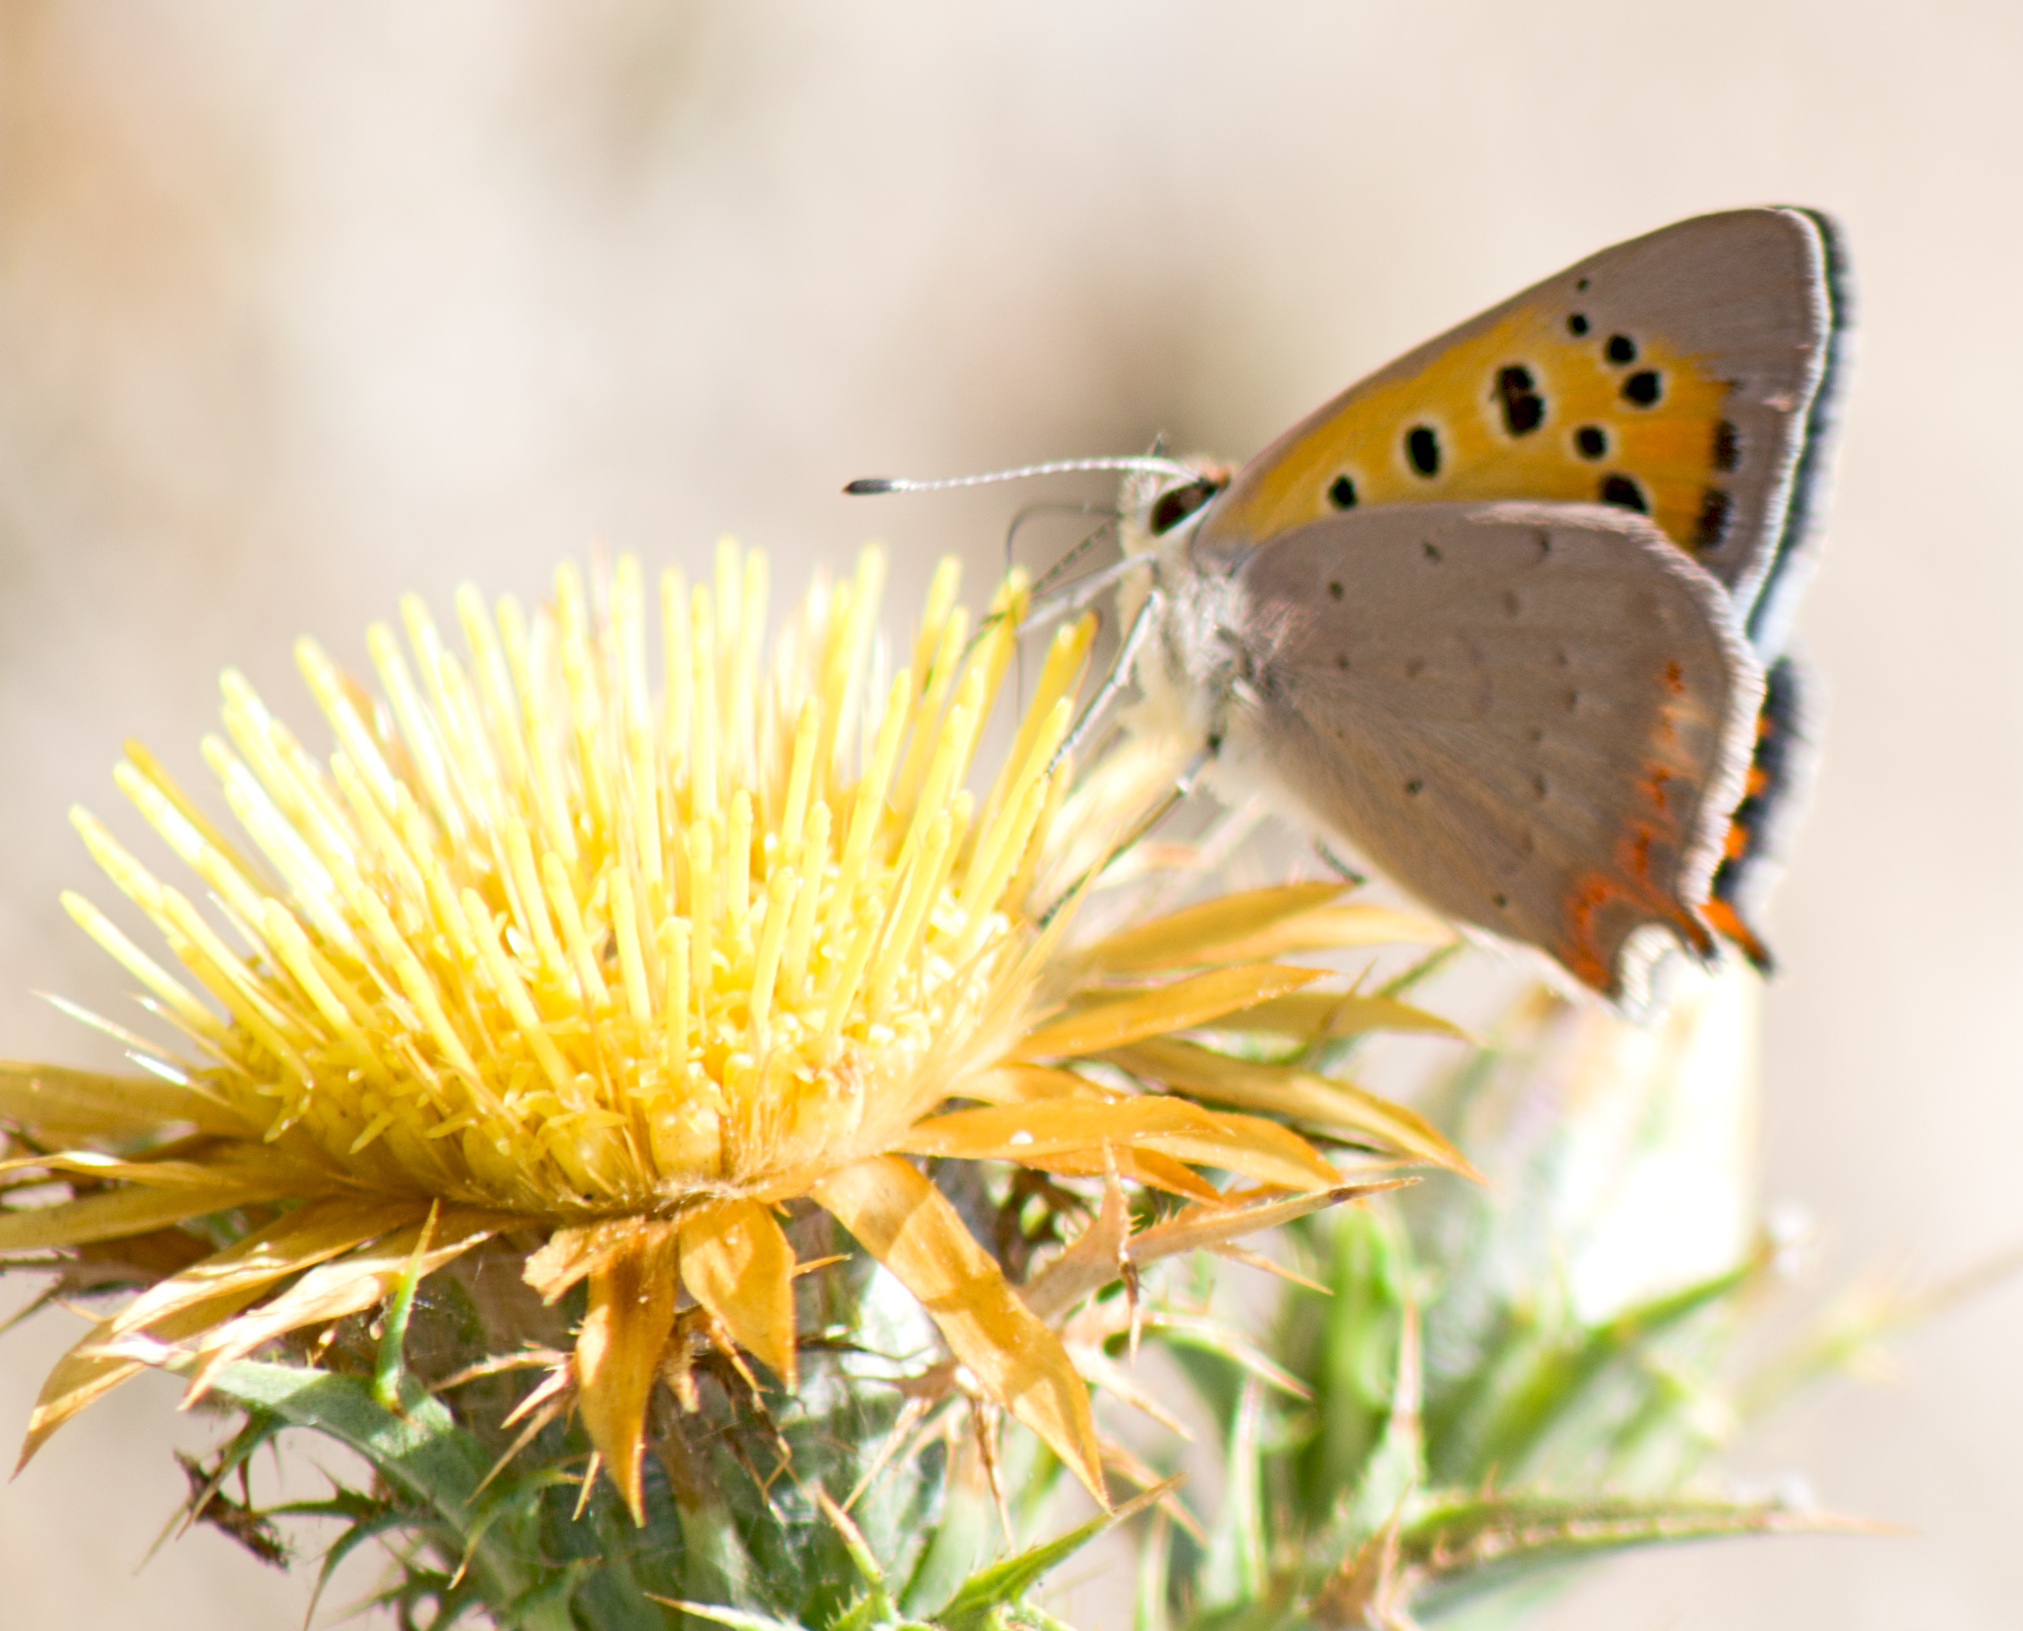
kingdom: Animalia
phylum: Arthropoda
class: Insecta
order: Lepidoptera
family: Lycaenidae
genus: Lycaena
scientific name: Lycaena phlaeas
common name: Small copper
